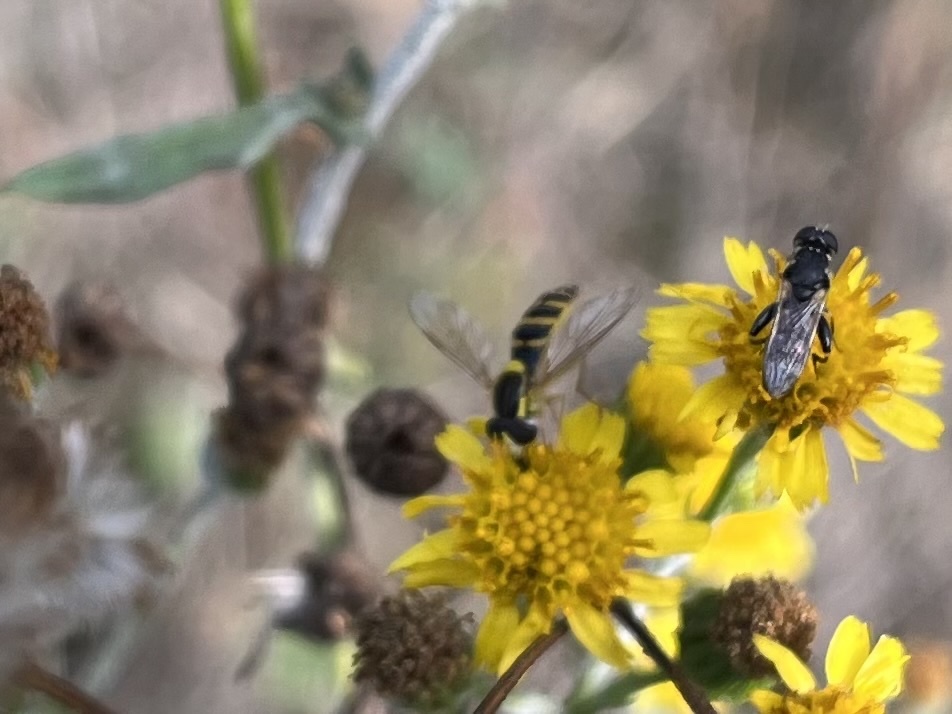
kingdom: Animalia
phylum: Arthropoda
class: Insecta
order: Diptera
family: Syrphidae
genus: Sphaerophoria
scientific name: Sphaerophoria
